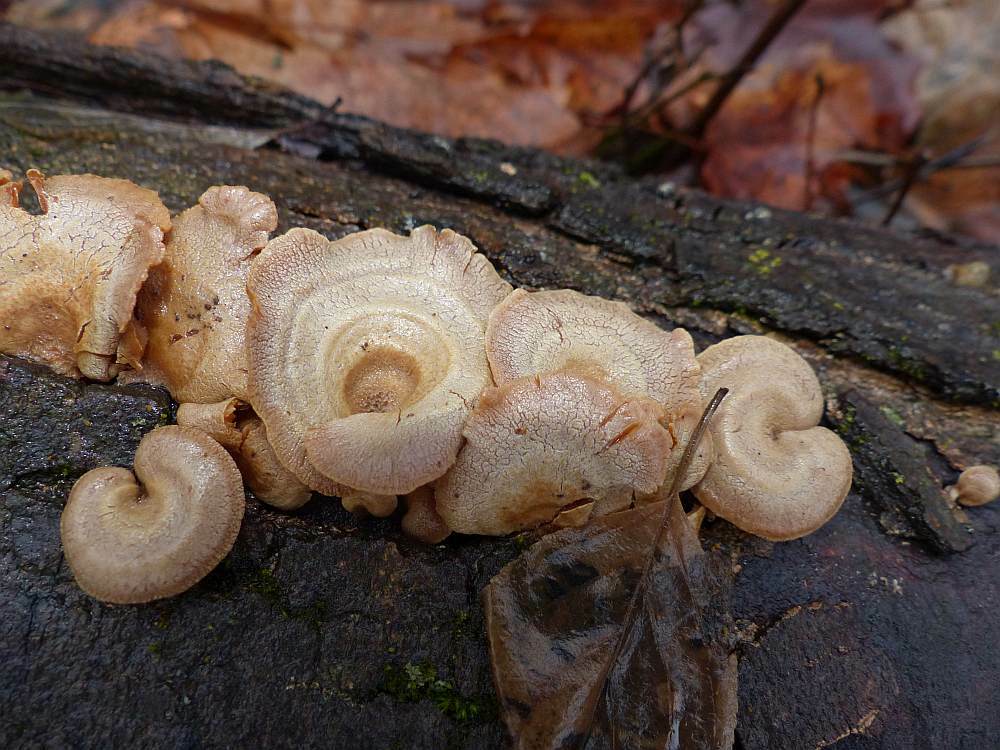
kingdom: Fungi
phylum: Basidiomycota
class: Agaricomycetes
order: Agaricales
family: Mycenaceae
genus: Panellus
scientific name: Panellus stipticus
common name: Bitter oysterling
